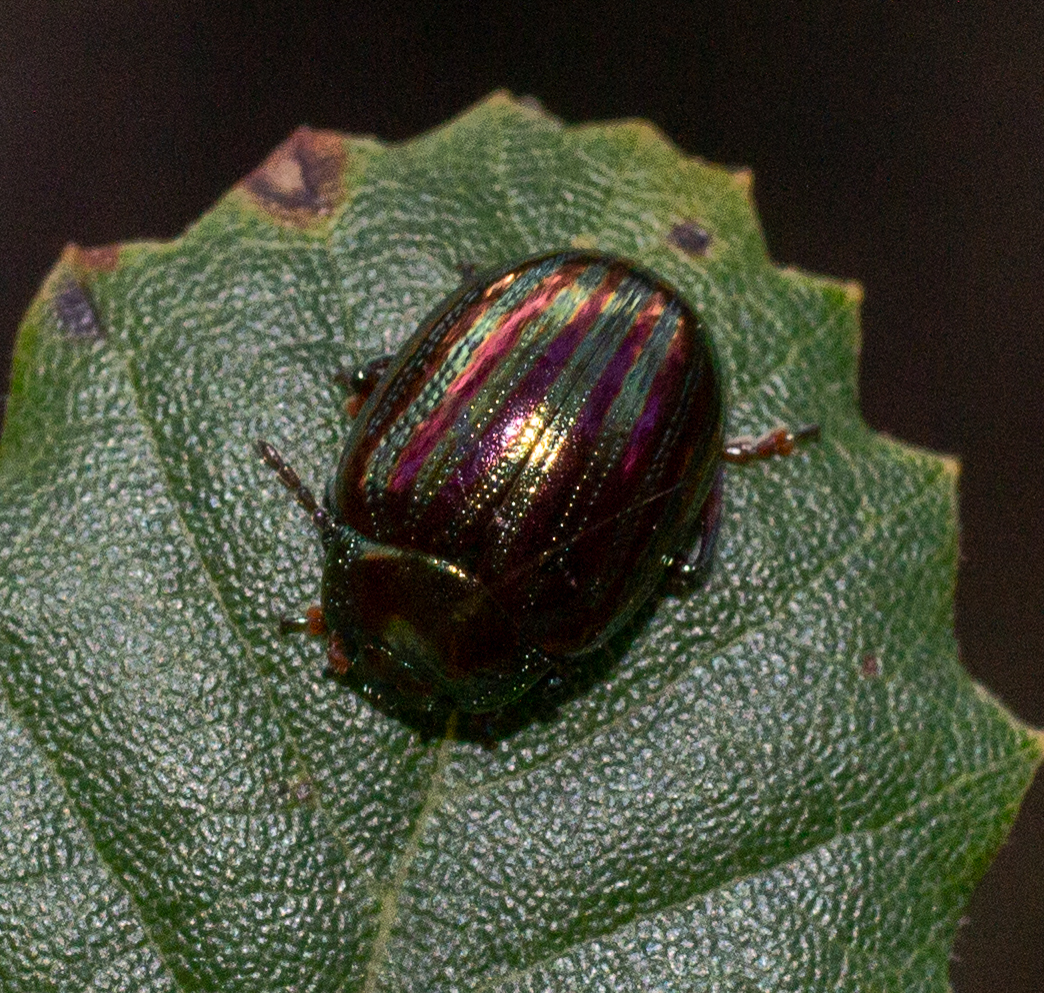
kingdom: Animalia
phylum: Arthropoda
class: Insecta
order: Coleoptera
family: Chrysomelidae
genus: Chrysolina
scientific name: Chrysolina americana
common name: Rosemary beetle
